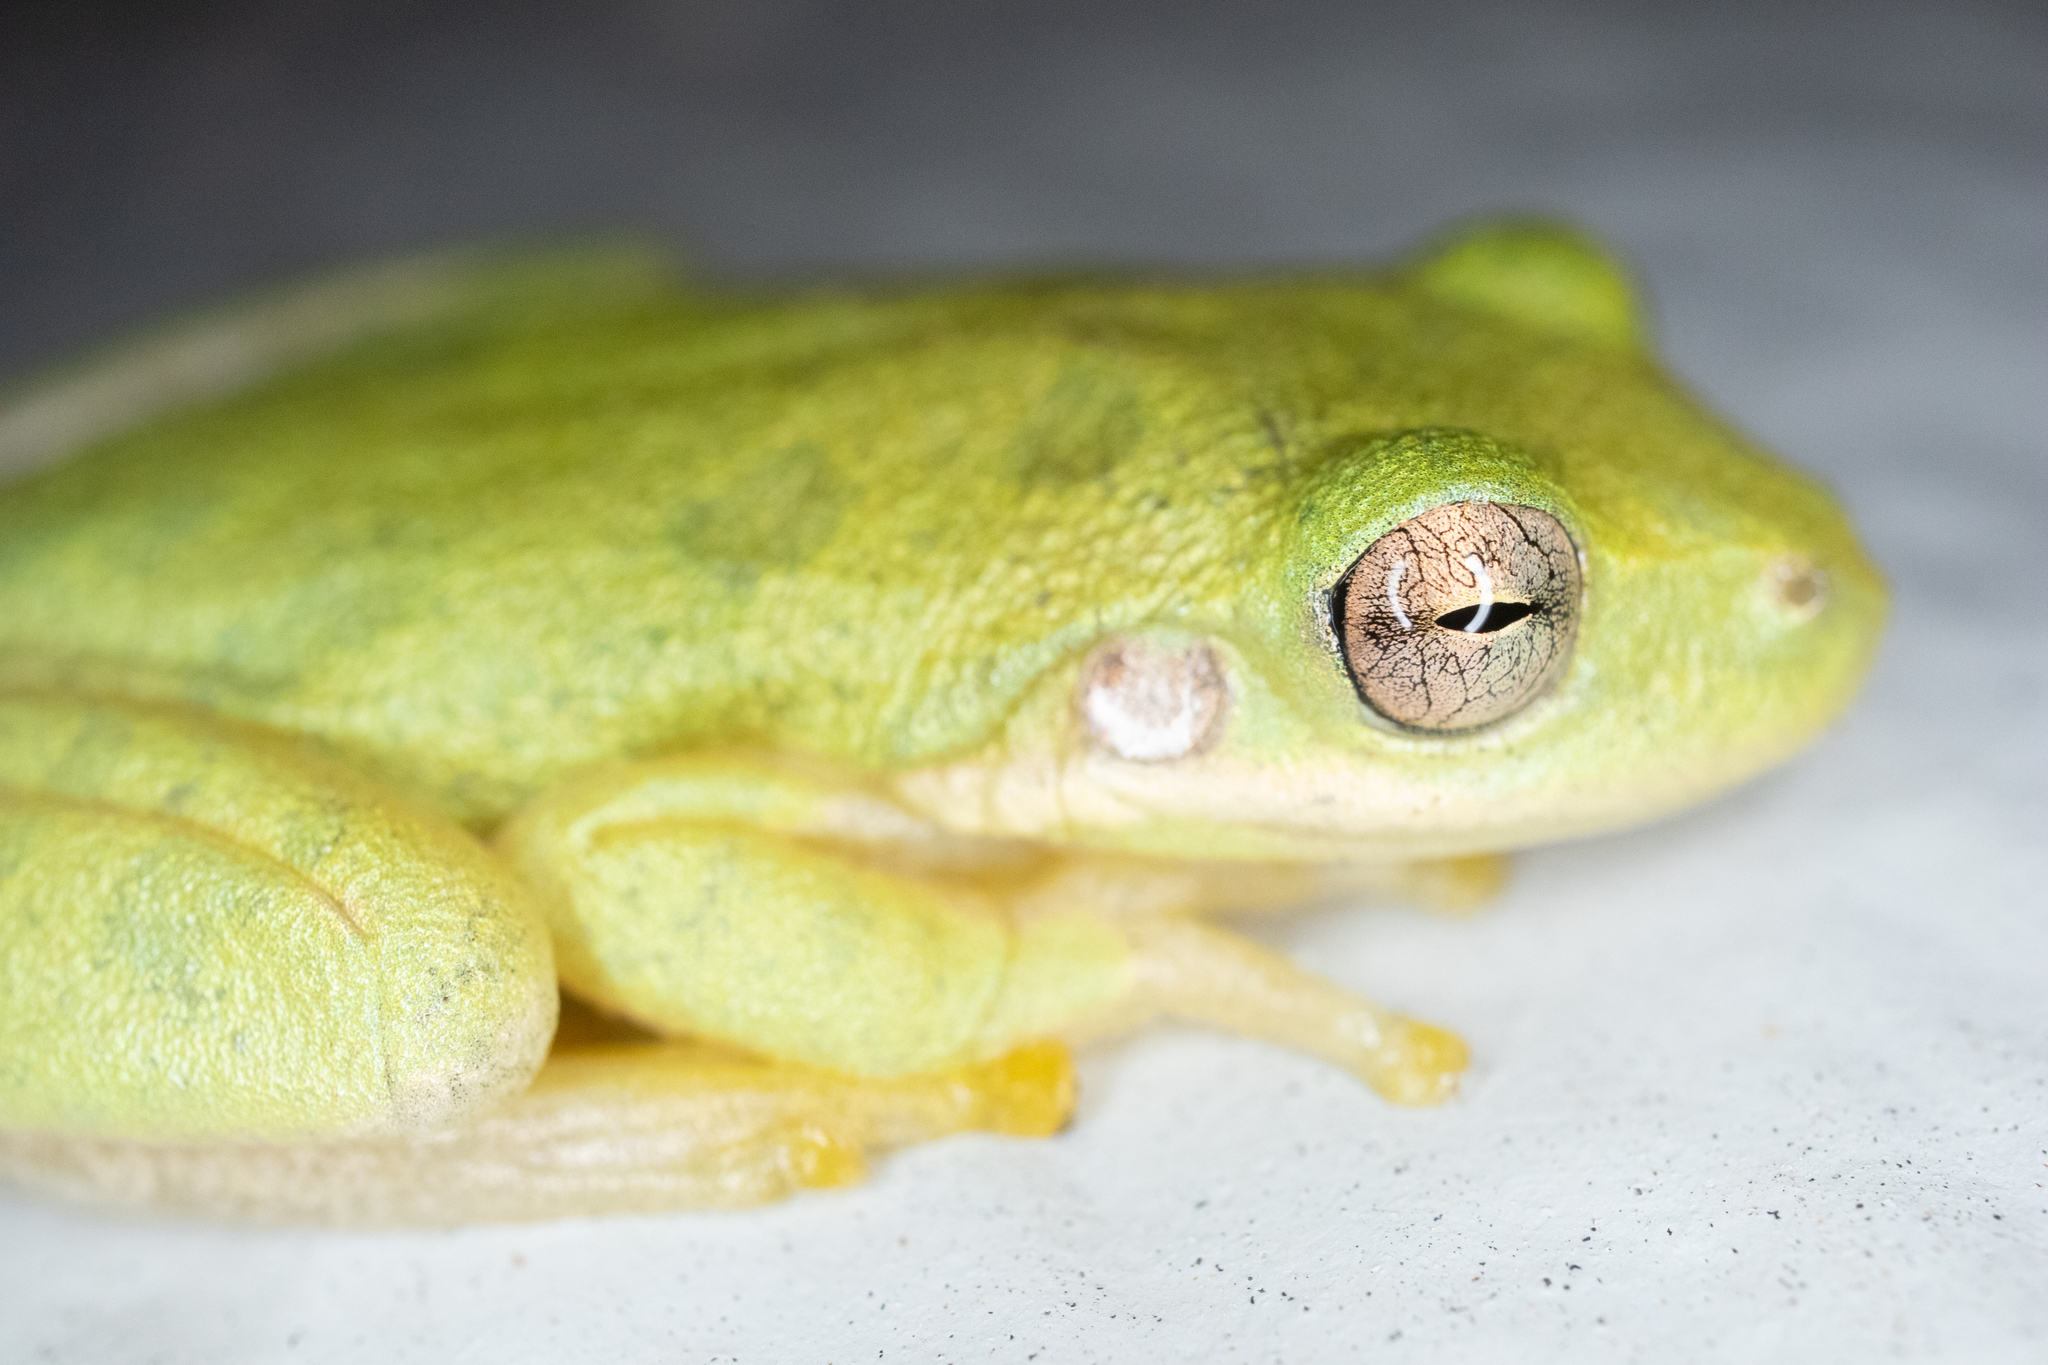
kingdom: Animalia
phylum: Chordata
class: Amphibia
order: Anura
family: Hylidae
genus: Dryophytes
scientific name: Dryophytes squirellus
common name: Squirrel treefrog
